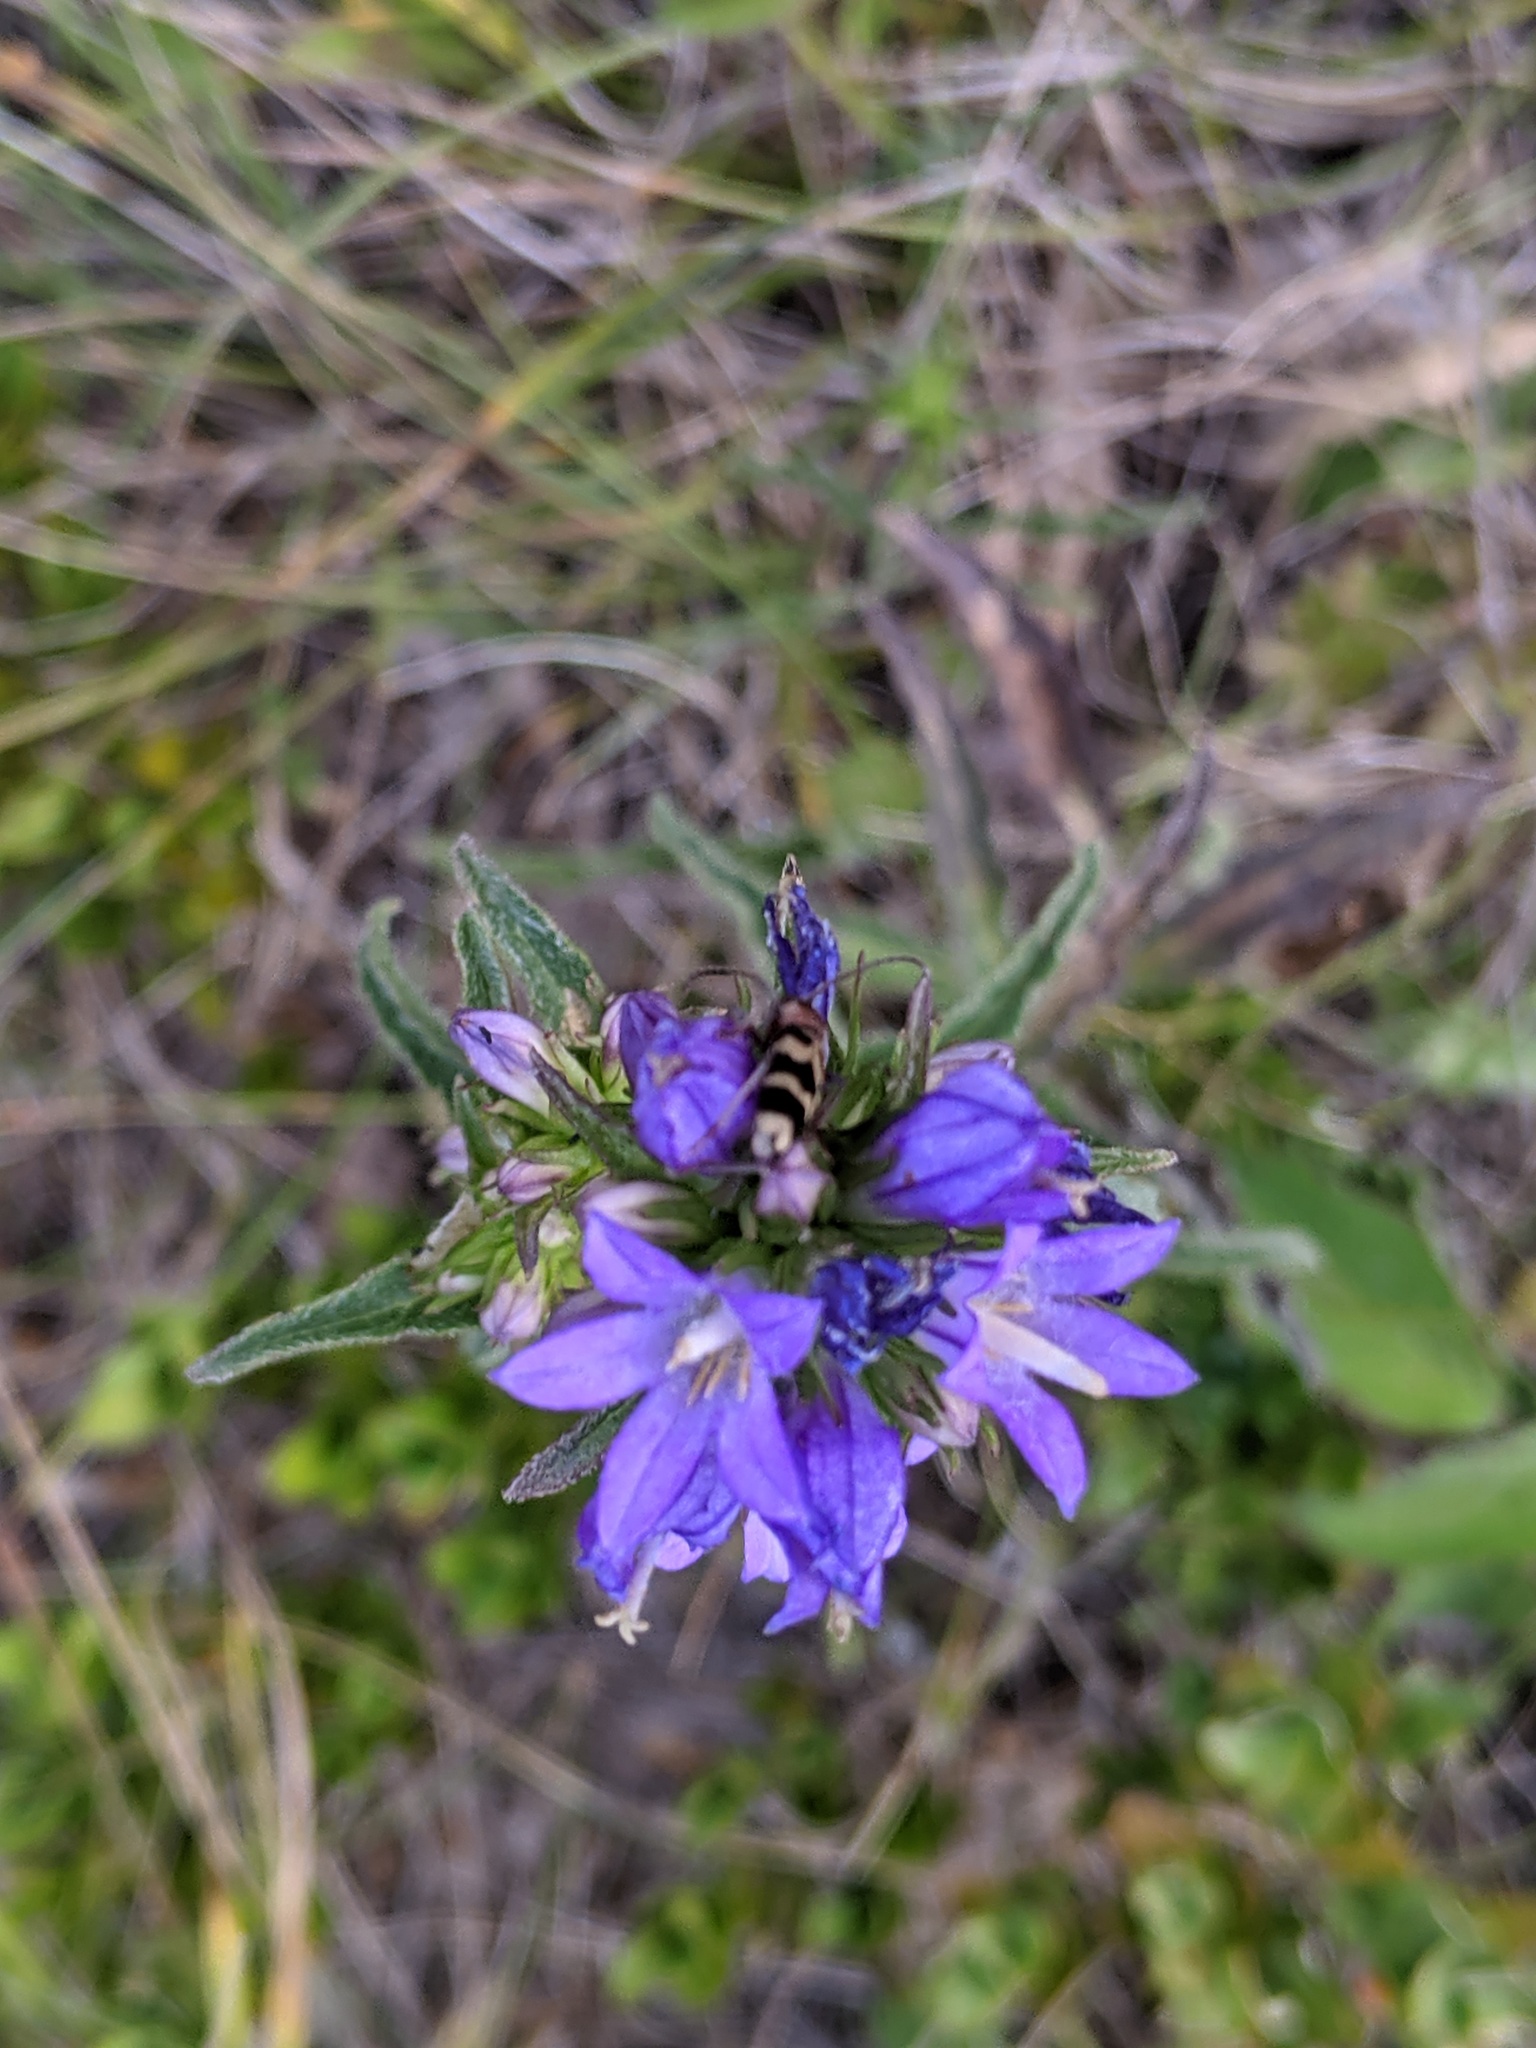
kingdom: Animalia
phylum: Arthropoda
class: Insecta
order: Coleoptera
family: Cerambycidae
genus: Chlorophorus
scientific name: Chlorophorus trifasciatus
